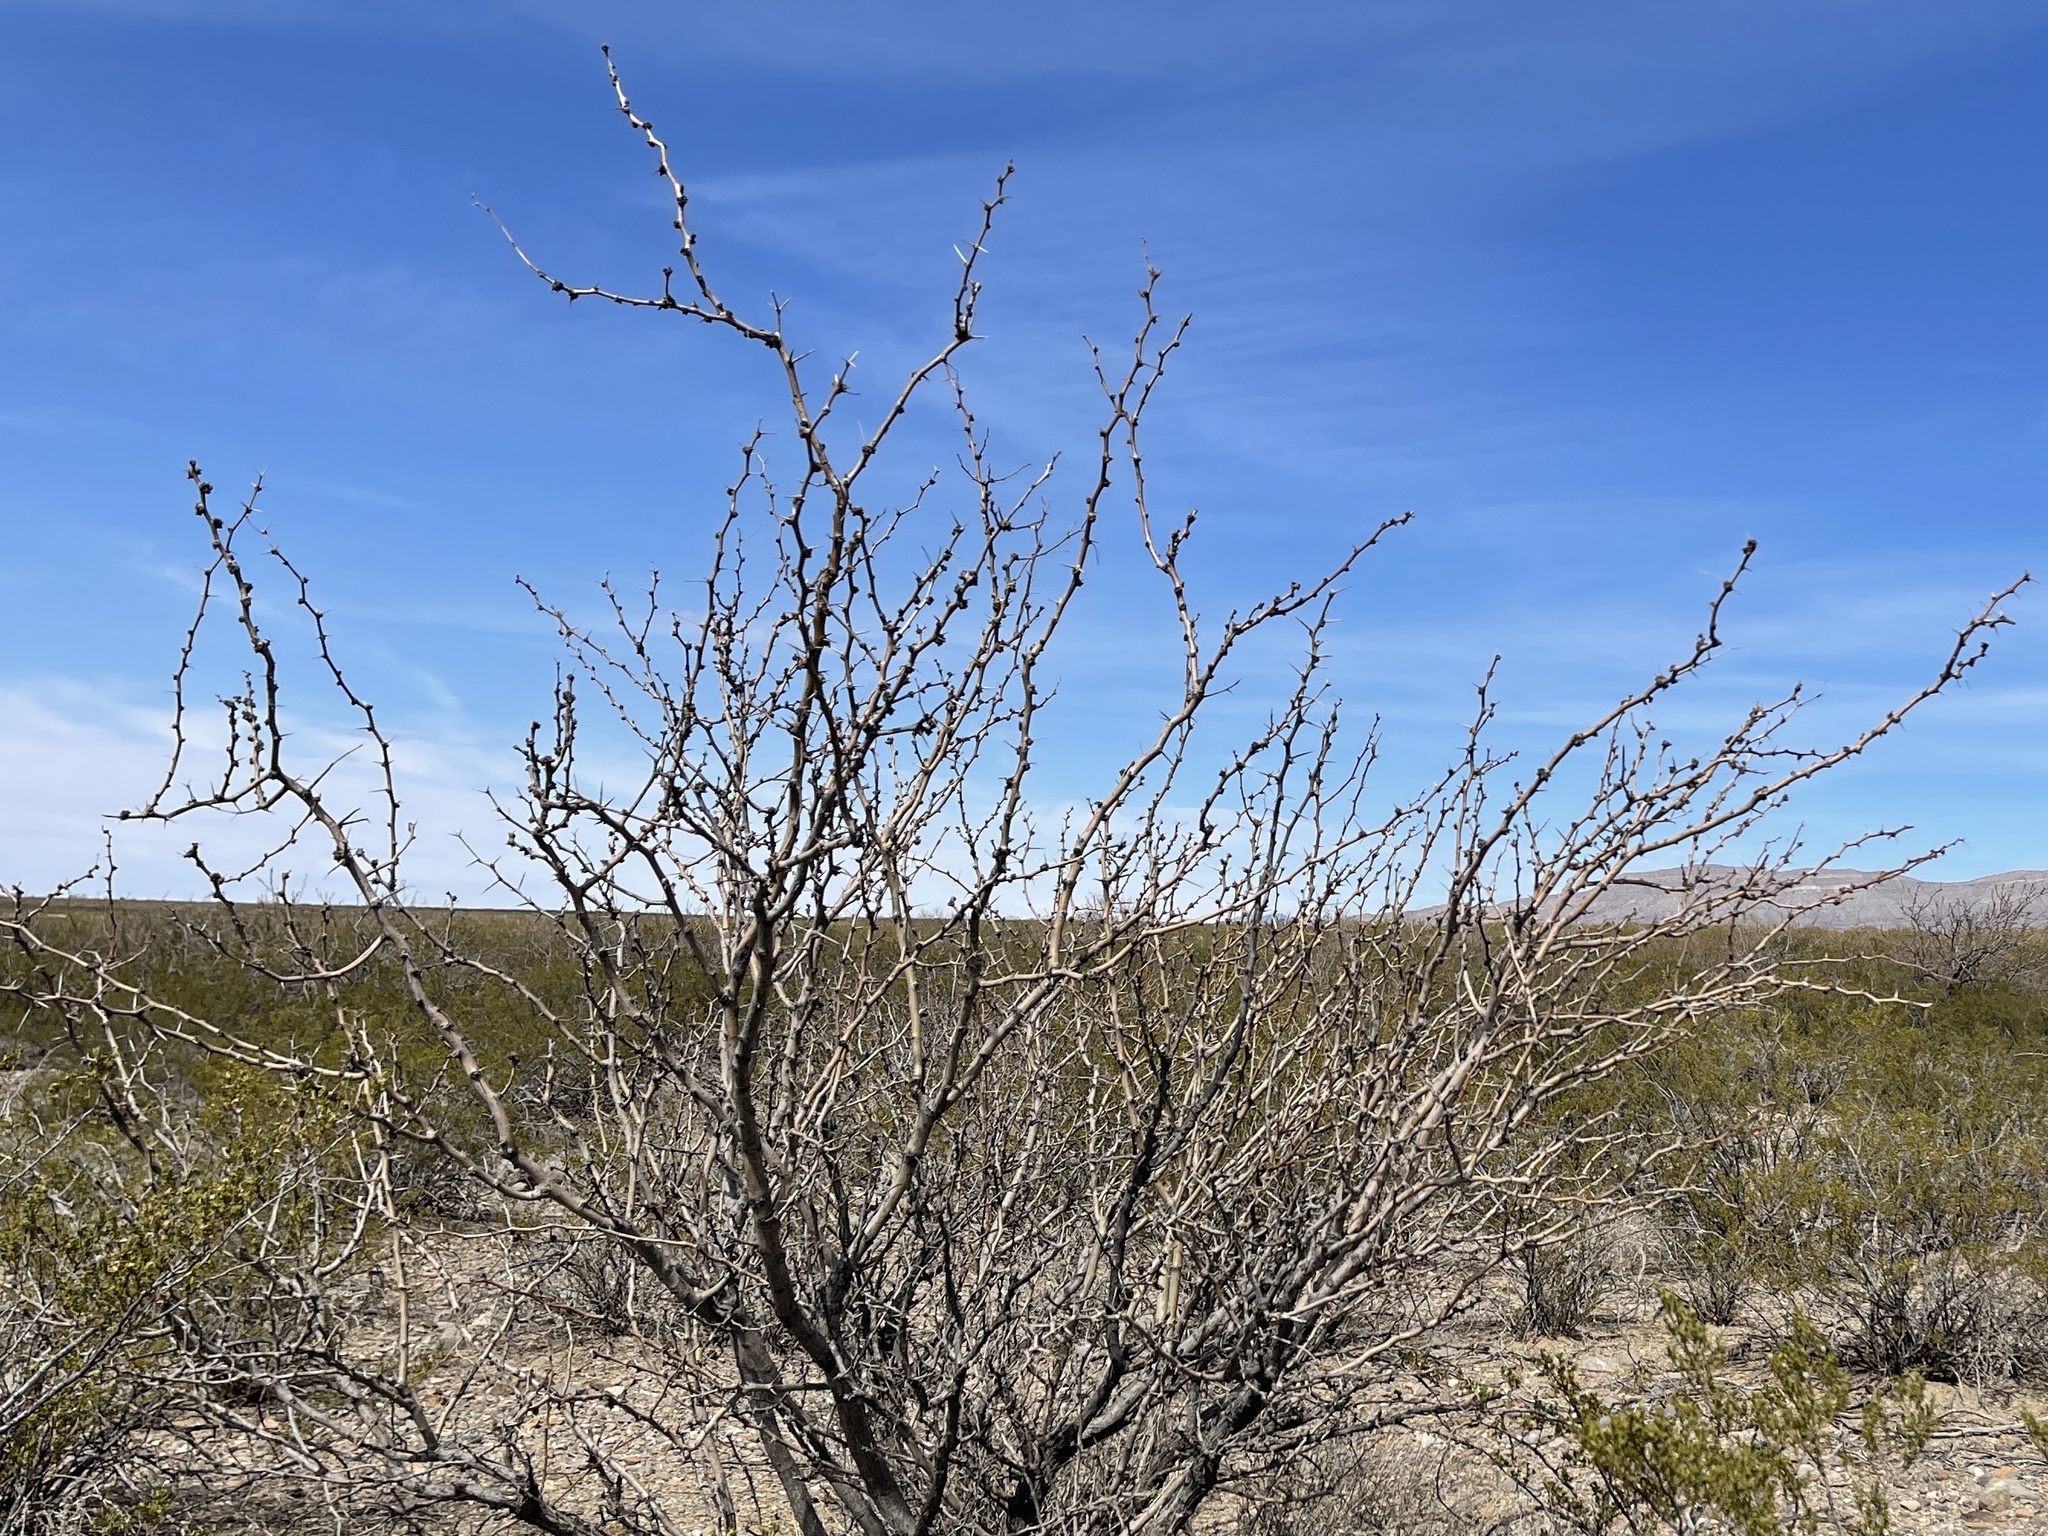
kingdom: Plantae
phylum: Tracheophyta
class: Magnoliopsida
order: Fabales
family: Fabaceae
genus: Prosopis
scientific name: Prosopis glandulosa
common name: Honey mesquite
